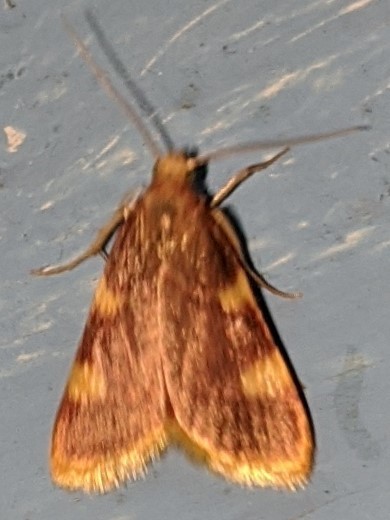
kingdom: Animalia
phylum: Arthropoda
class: Insecta
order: Lepidoptera
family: Pyralidae
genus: Hypsopygia
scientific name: Hypsopygia costalis
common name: Gold triangle
